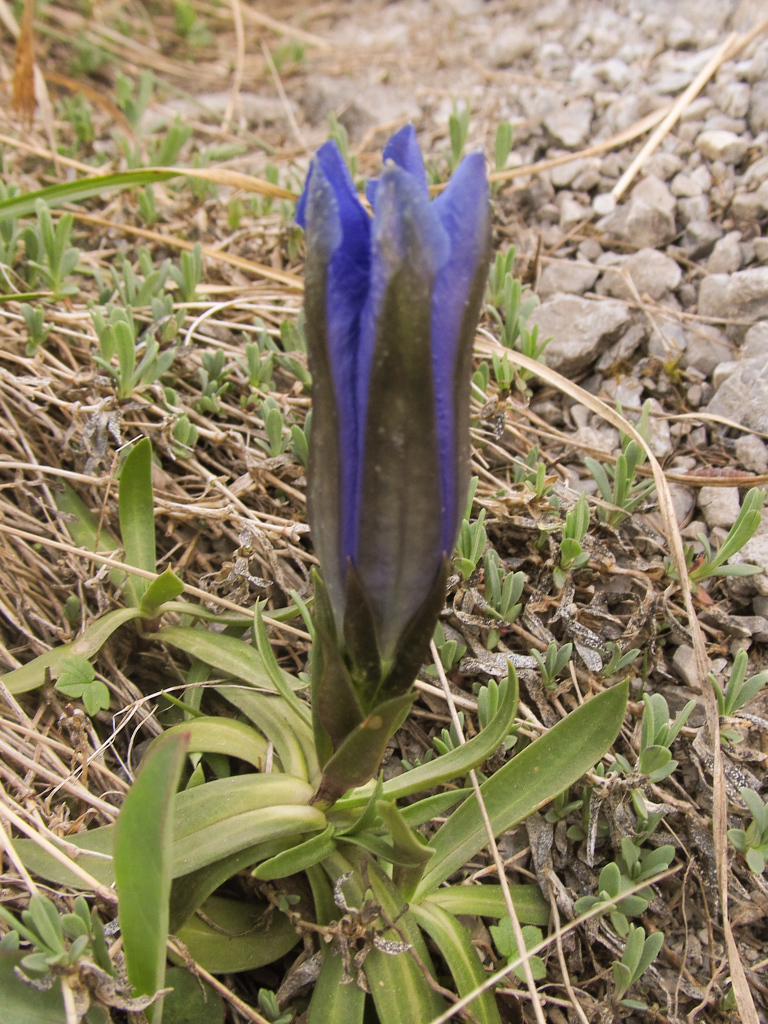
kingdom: Plantae
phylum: Tracheophyta
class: Magnoliopsida
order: Gentianales
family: Gentianaceae
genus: Gentiana
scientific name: Gentiana clusii
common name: Trumpet gentian
